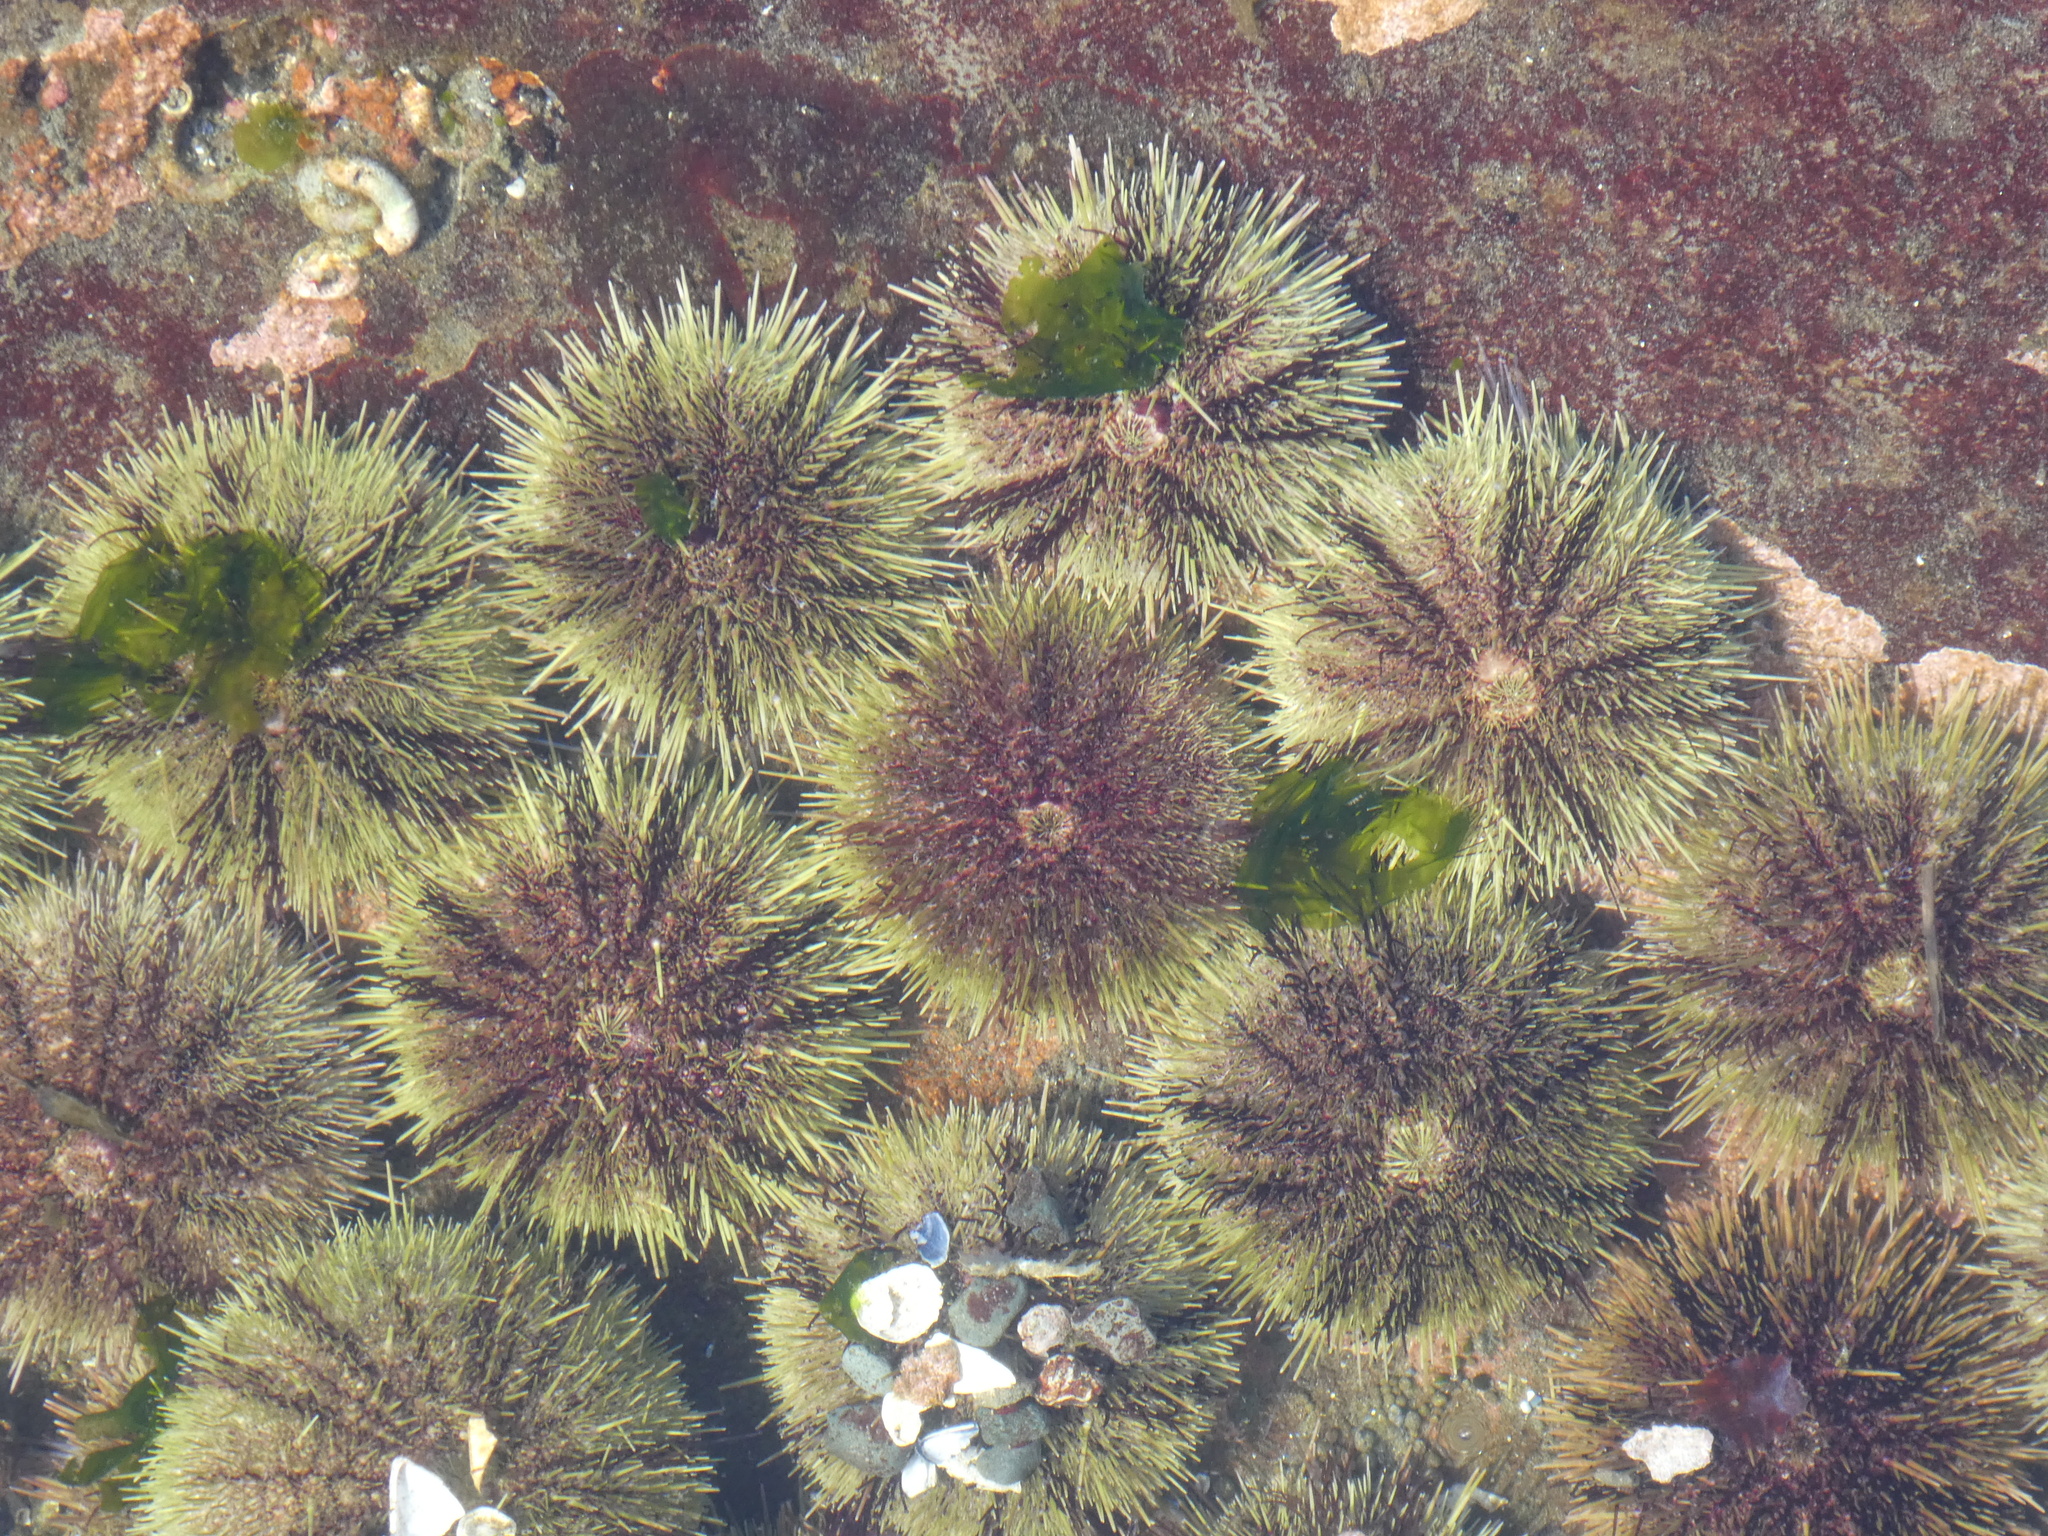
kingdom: Animalia
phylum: Echinodermata
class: Echinoidea
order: Camarodonta
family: Strongylocentrotidae
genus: Strongylocentrotus
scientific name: Strongylocentrotus droebachiensis
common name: Northern sea urchin
